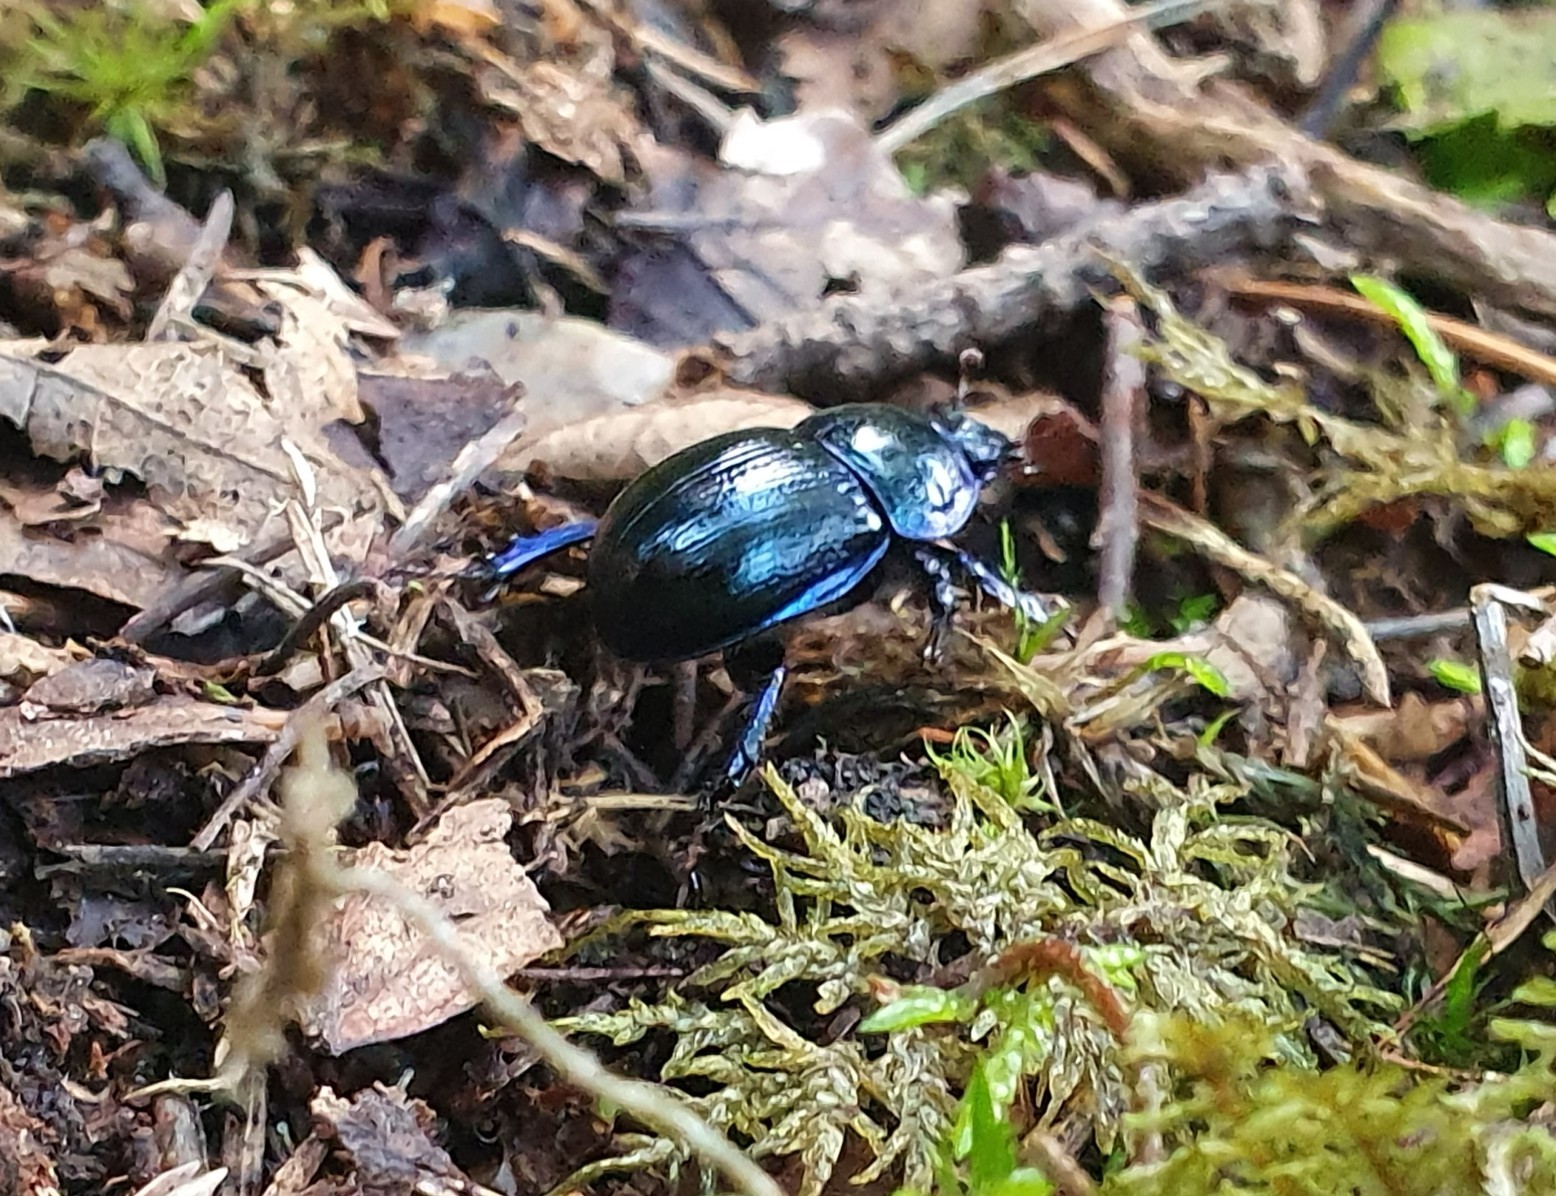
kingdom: Animalia
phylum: Arthropoda
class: Insecta
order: Coleoptera
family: Geotrupidae
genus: Anoplotrupes
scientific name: Anoplotrupes stercorosus
